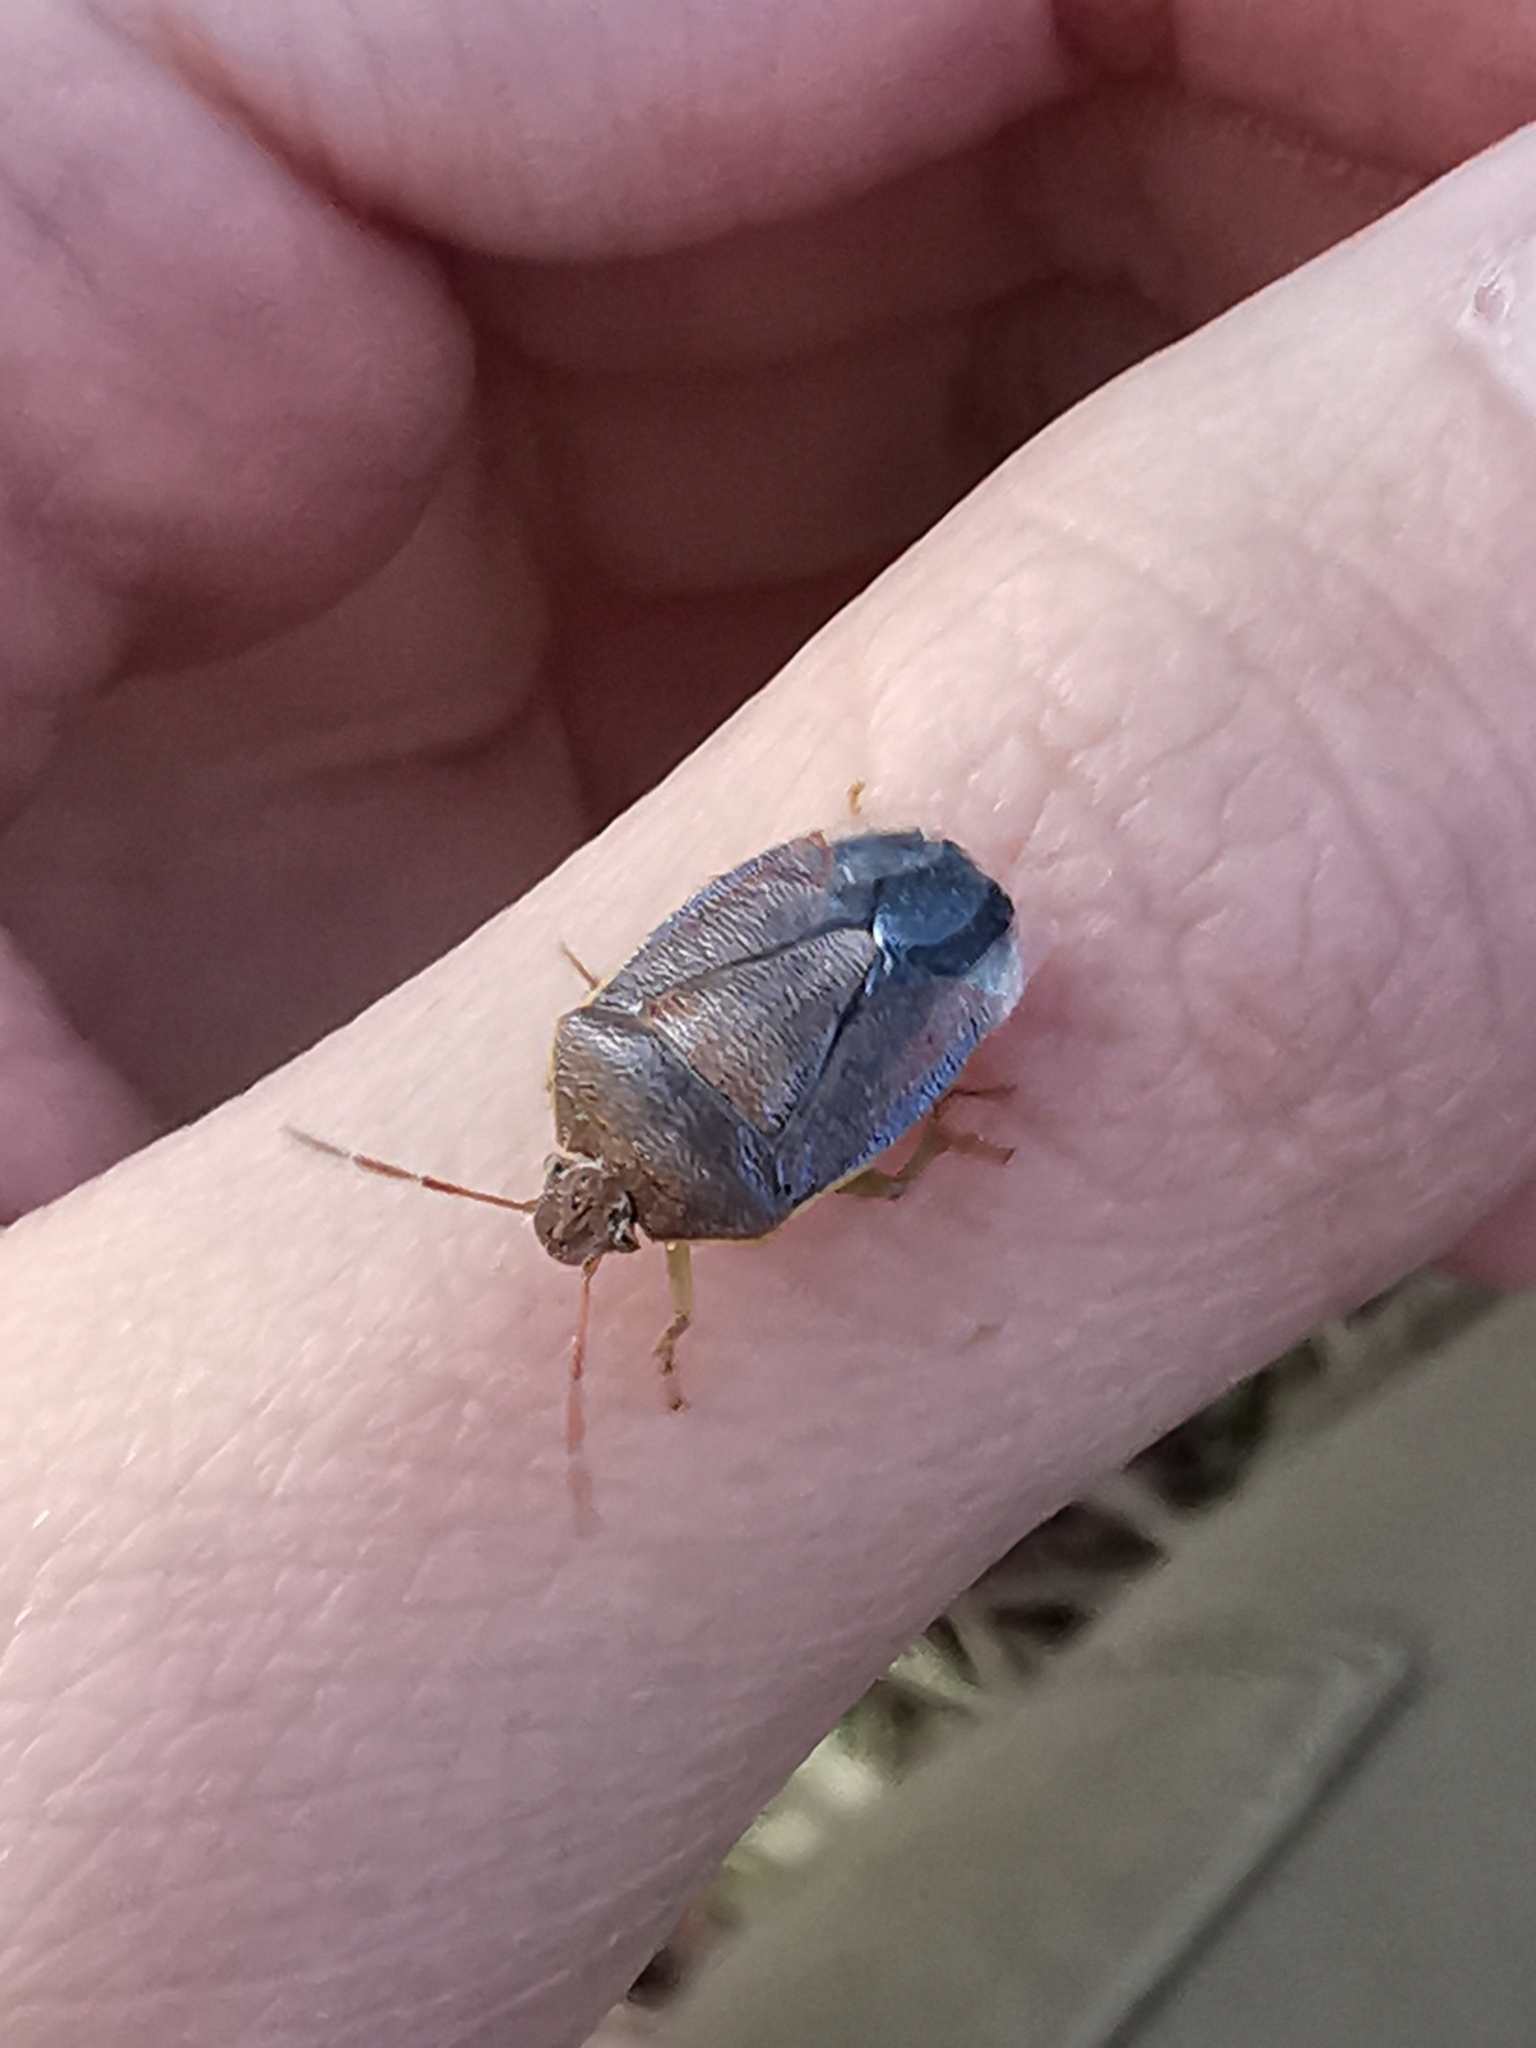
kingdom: Animalia
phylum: Arthropoda
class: Insecta
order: Hemiptera
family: Pentatomidae
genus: Piezodorus
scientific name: Piezodorus lituratus
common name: Stink bug
